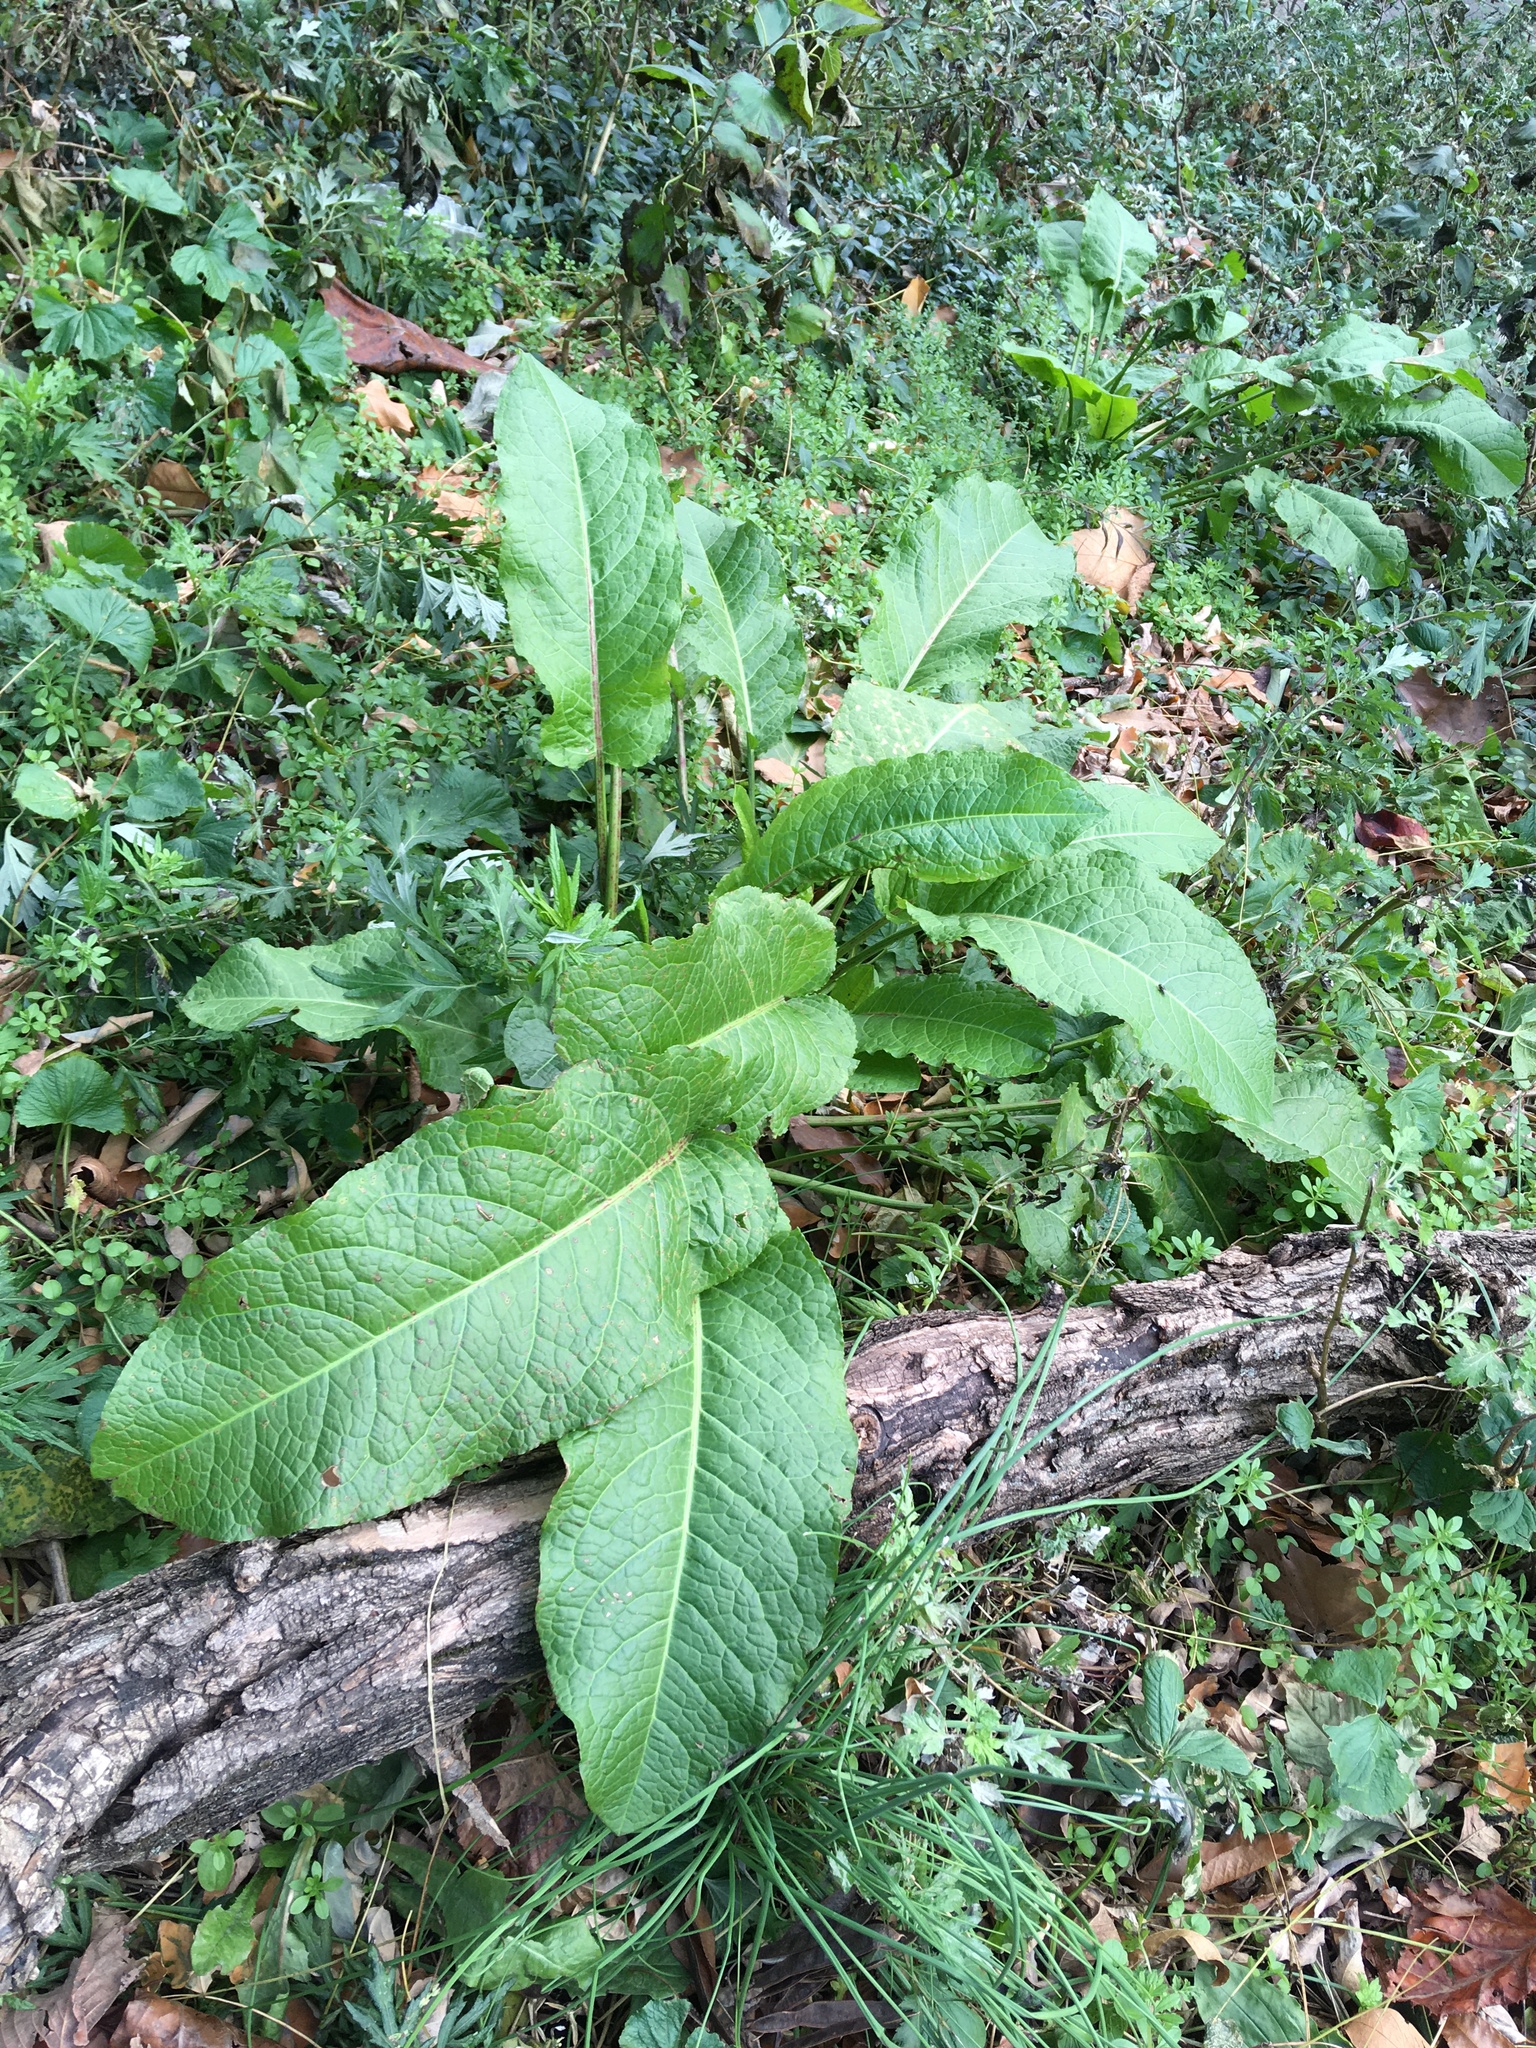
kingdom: Plantae
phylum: Tracheophyta
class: Magnoliopsida
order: Caryophyllales
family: Polygonaceae
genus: Rumex
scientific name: Rumex obtusifolius
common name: Bitter dock
